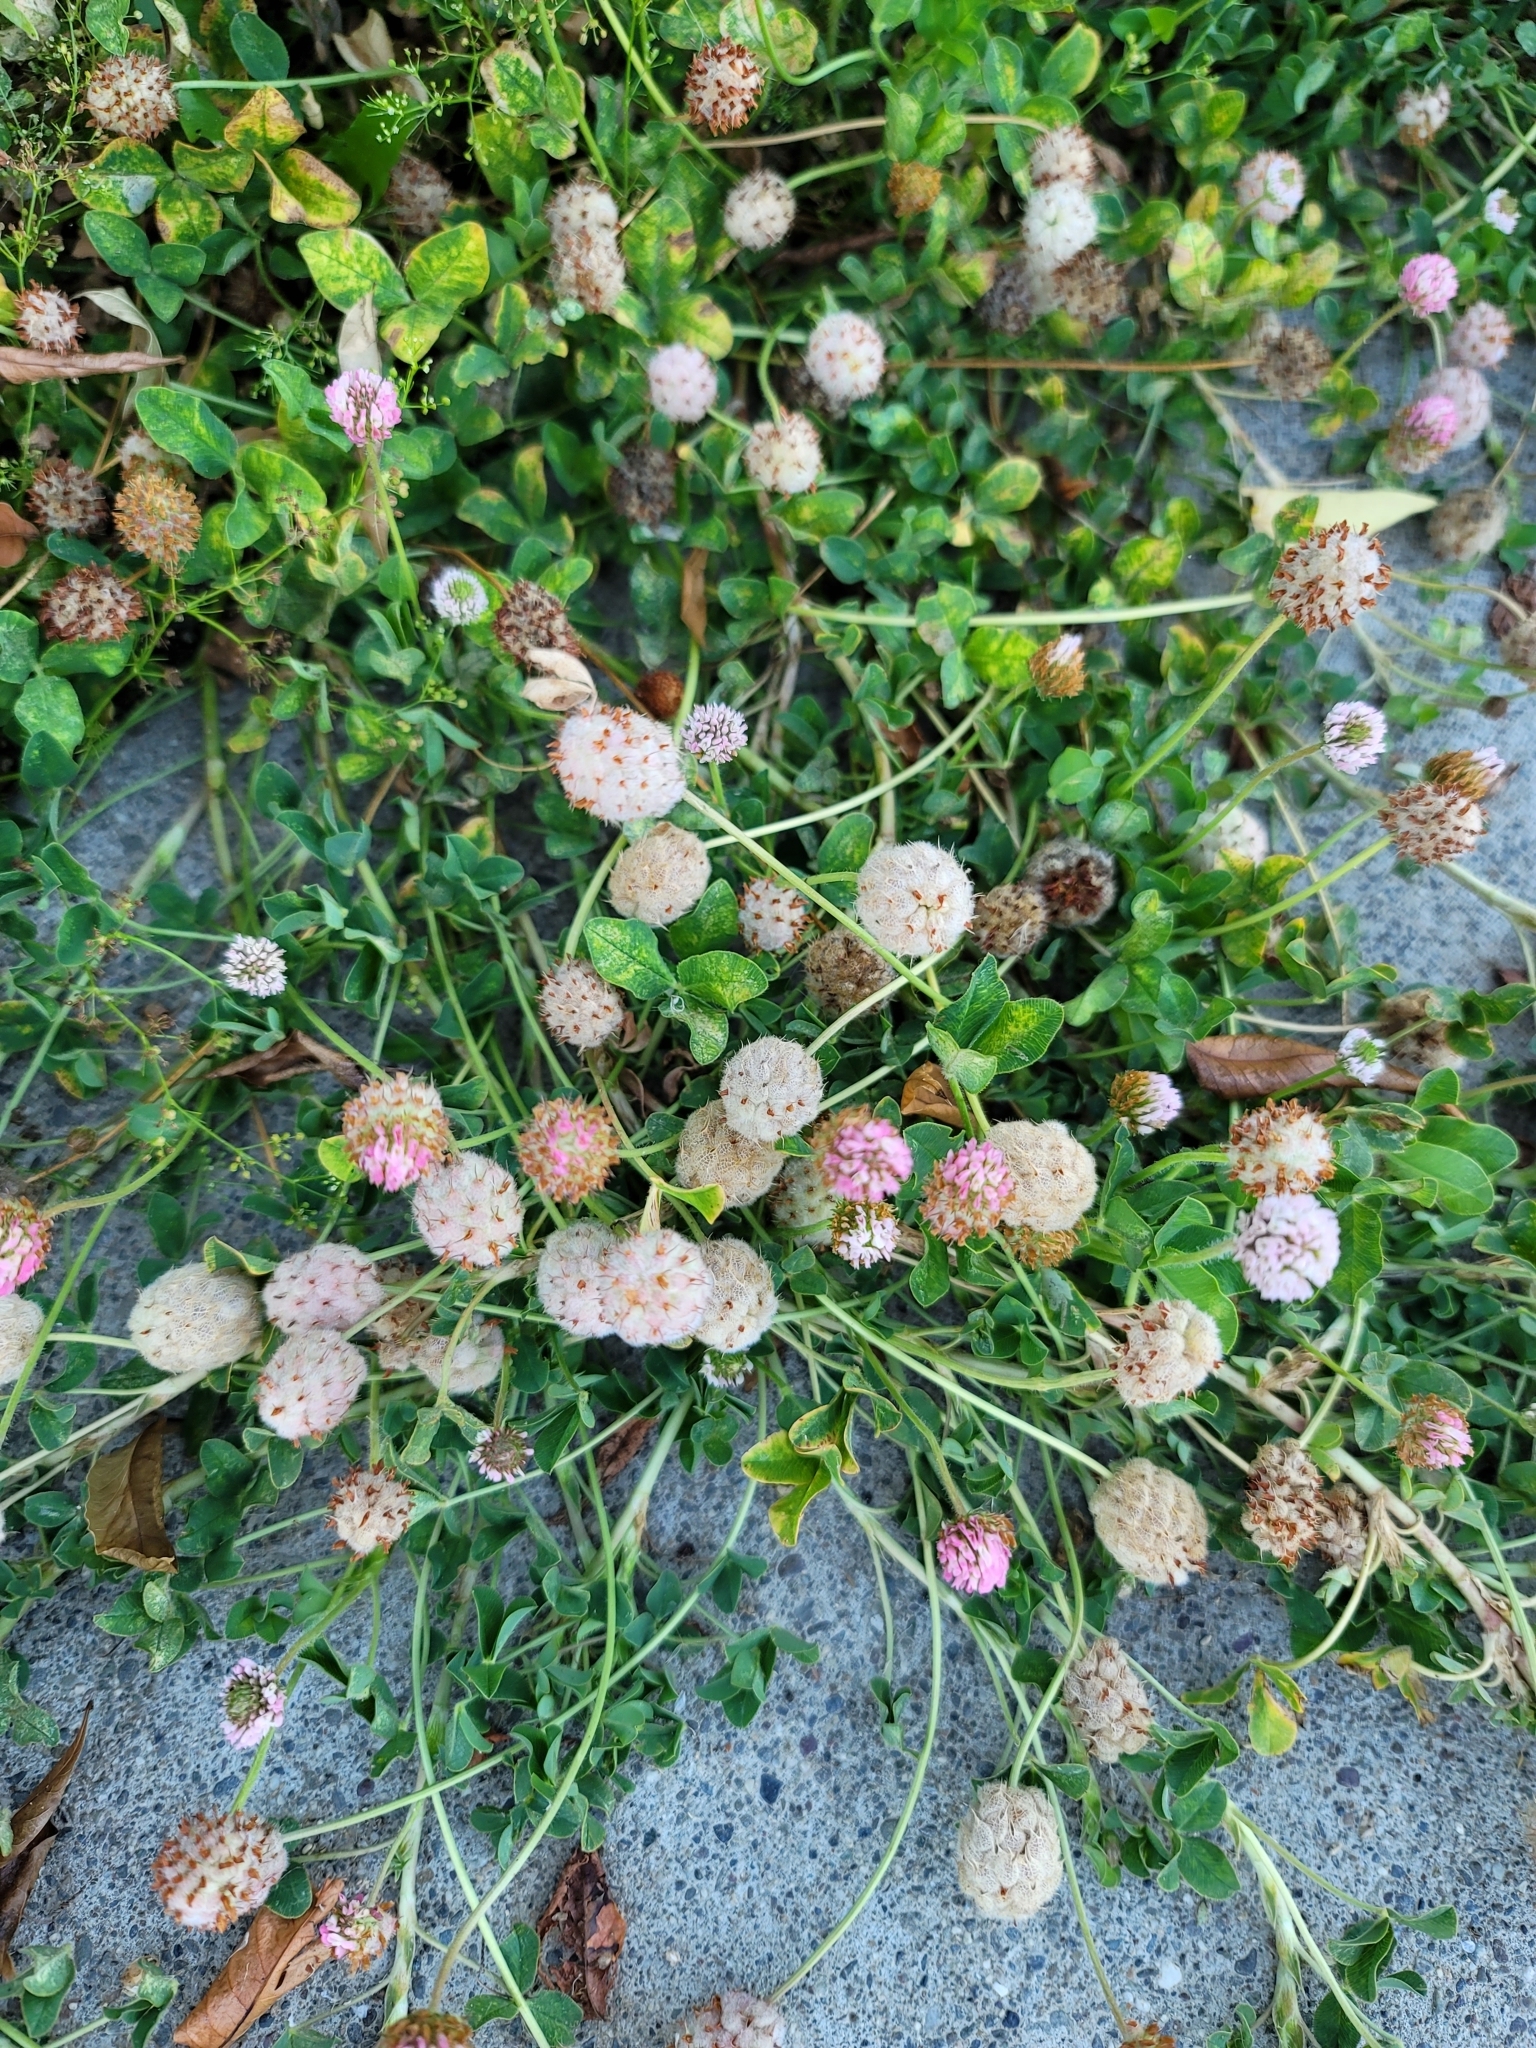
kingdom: Plantae
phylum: Tracheophyta
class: Magnoliopsida
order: Fabales
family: Fabaceae
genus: Trifolium
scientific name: Trifolium fragiferum
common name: Strawberry clover
